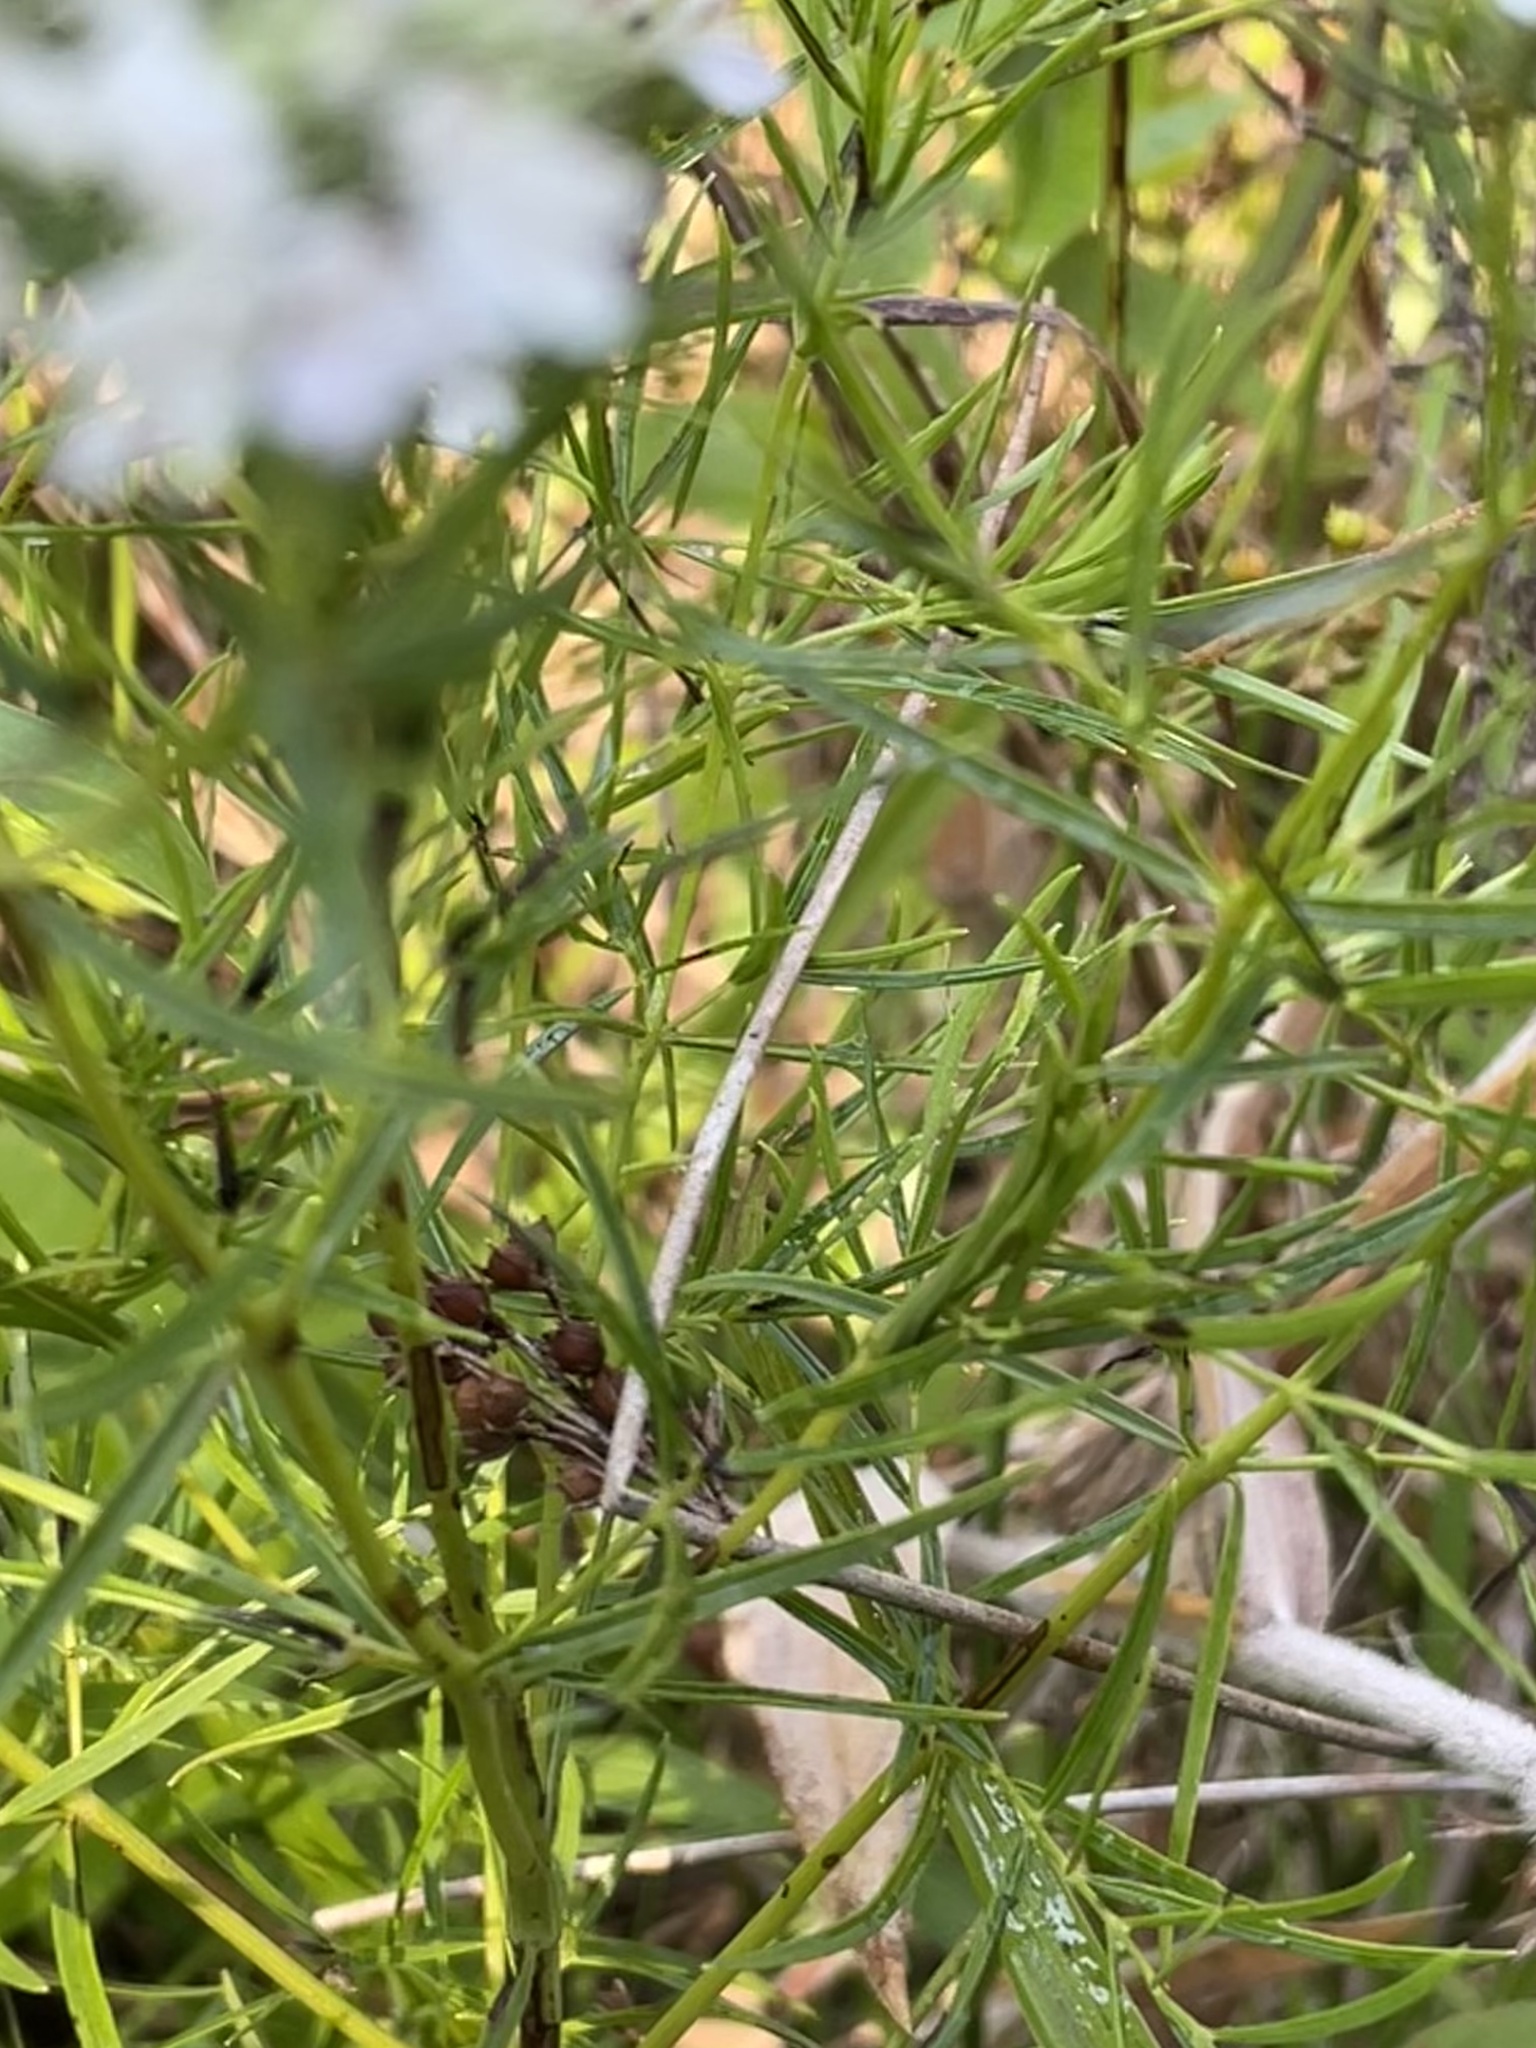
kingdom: Plantae
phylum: Tracheophyta
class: Magnoliopsida
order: Lamiales
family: Lamiaceae
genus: Pycnanthemum
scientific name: Pycnanthemum tenuifolium
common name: Narrow-leaf mountain-mint
